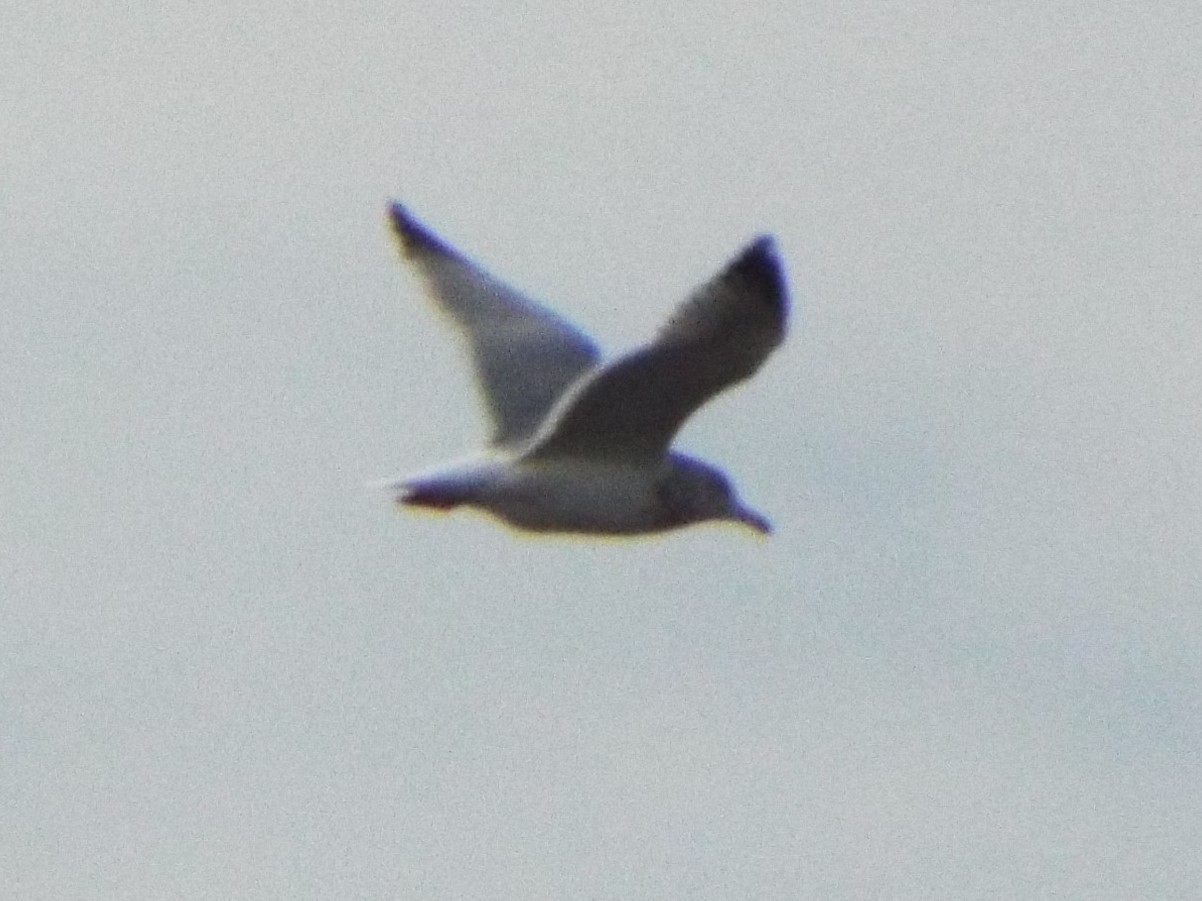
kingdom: Animalia
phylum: Chordata
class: Aves
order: Charadriiformes
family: Laridae
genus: Larus
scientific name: Larus argentatus
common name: Herring gull
